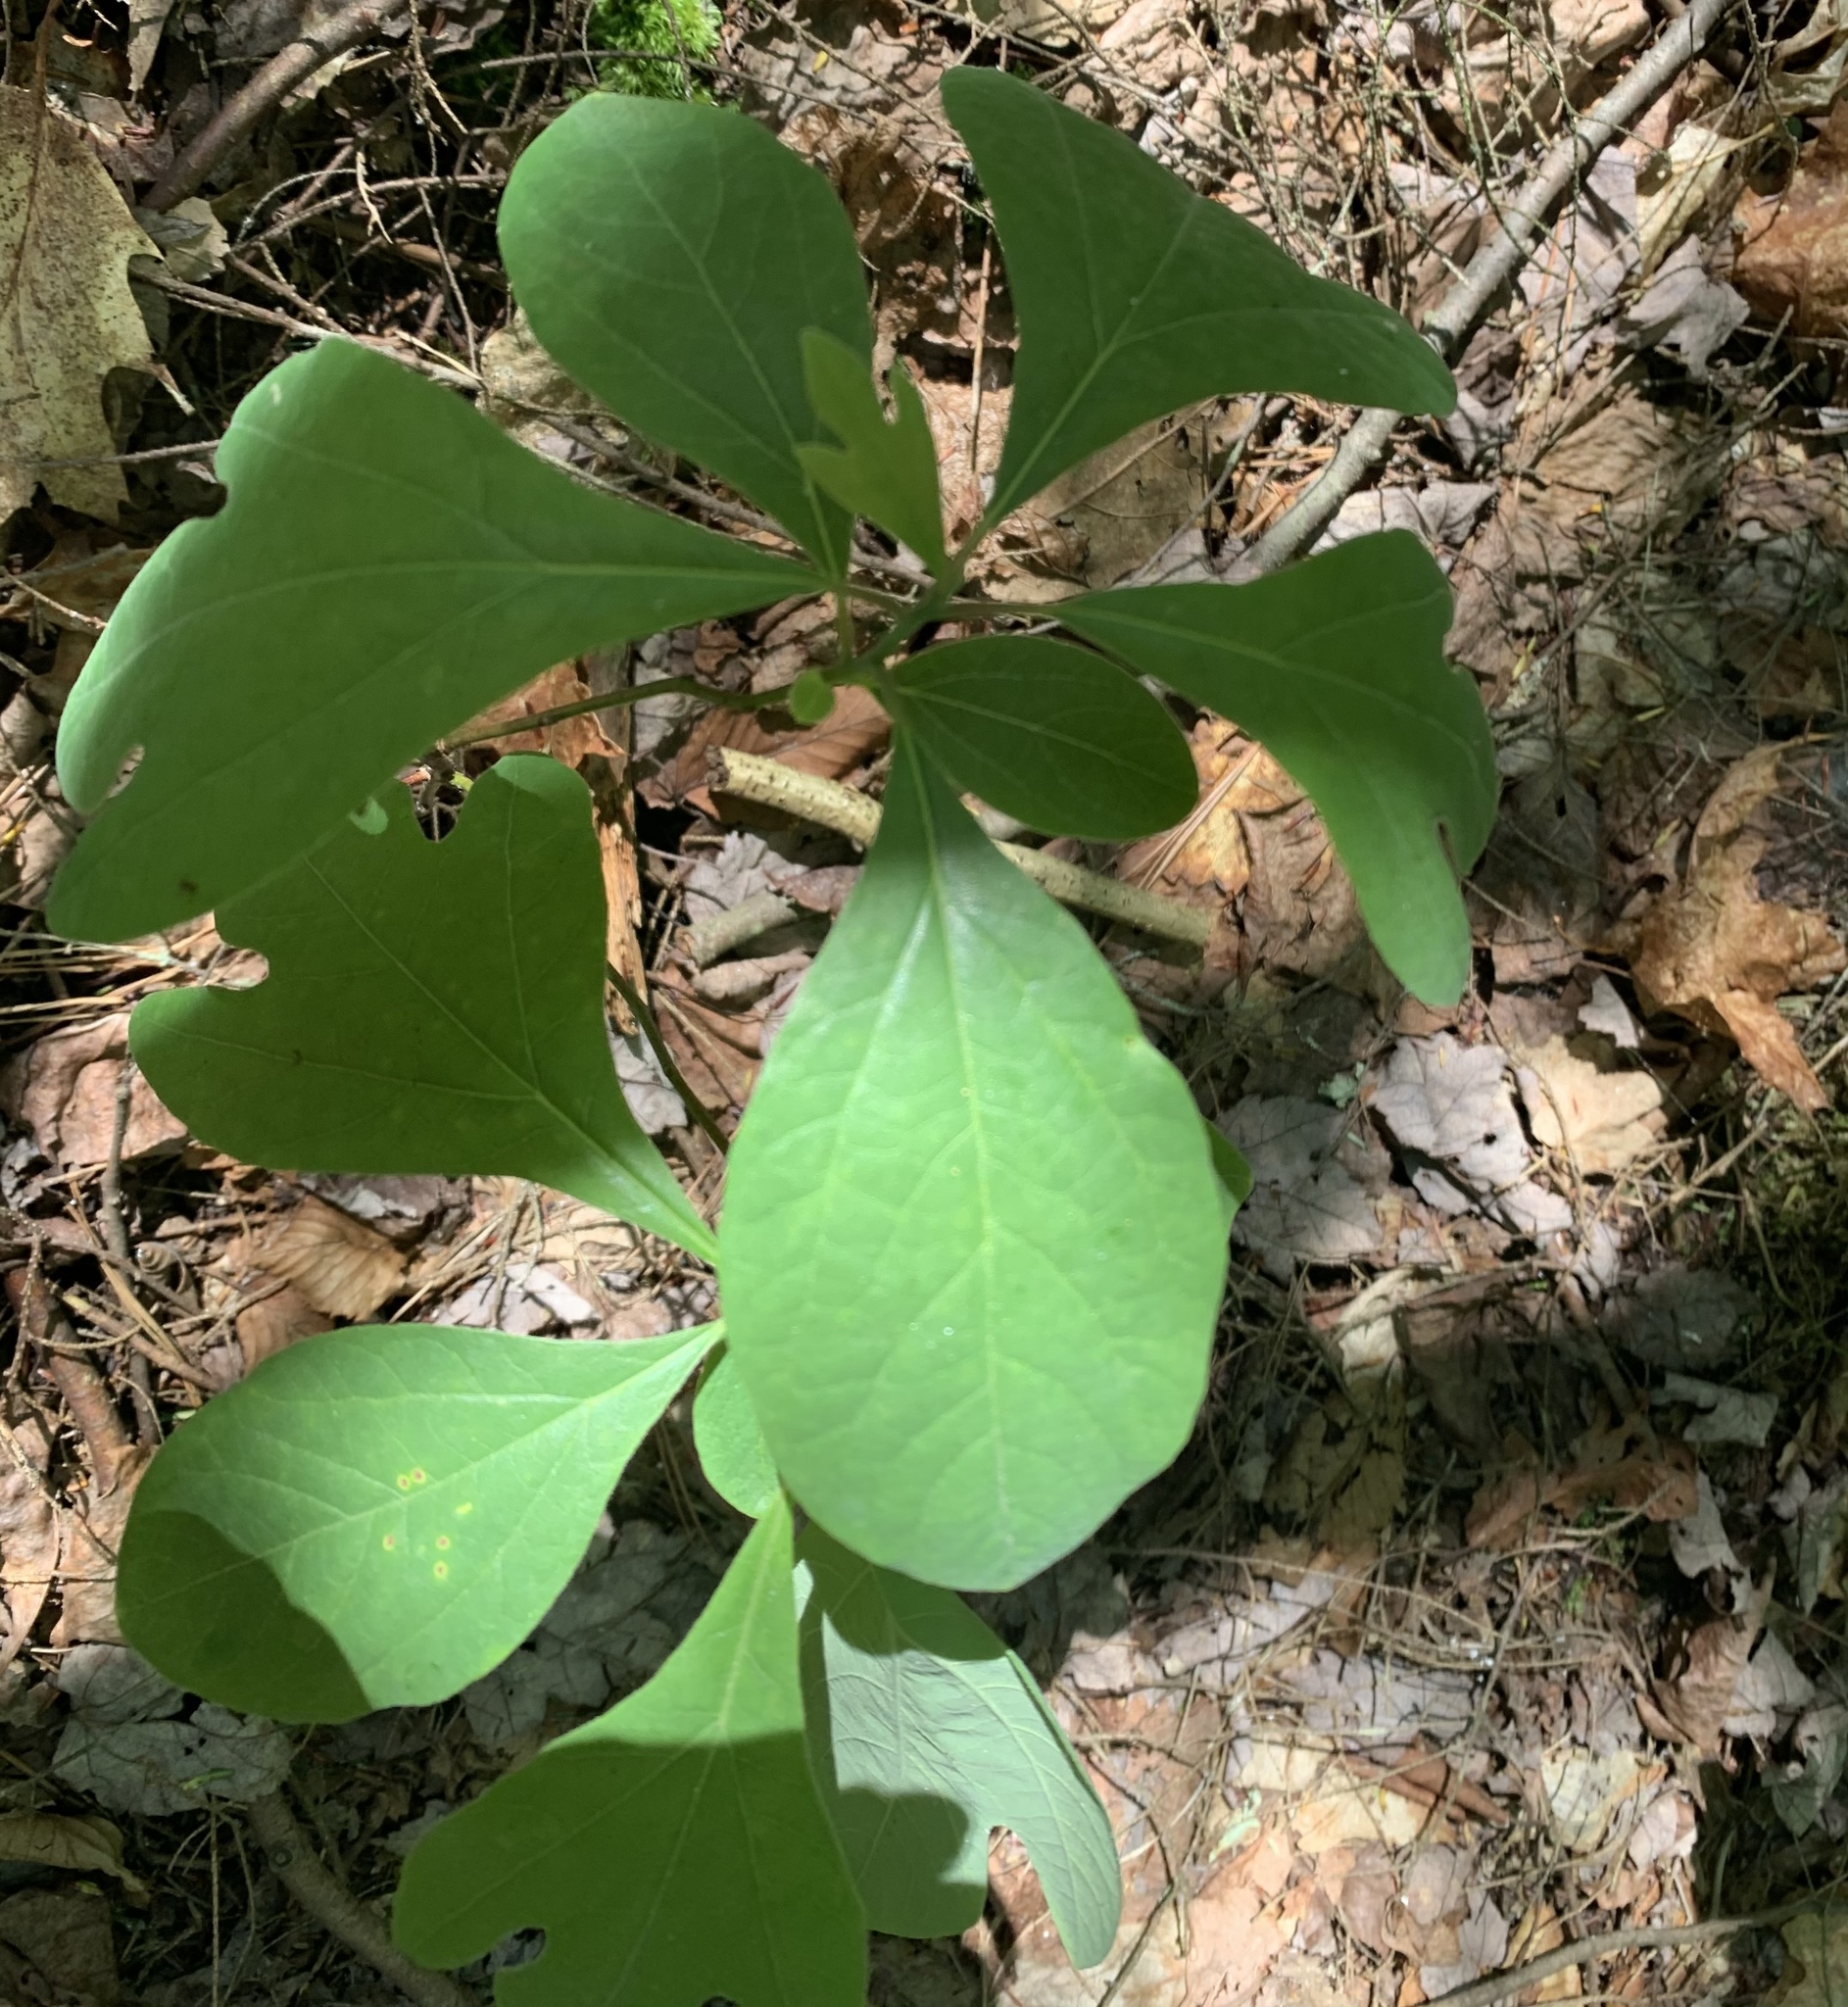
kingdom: Plantae
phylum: Tracheophyta
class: Magnoliopsida
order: Laurales
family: Lauraceae
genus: Sassafras
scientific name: Sassafras albidum
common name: Sassafras
